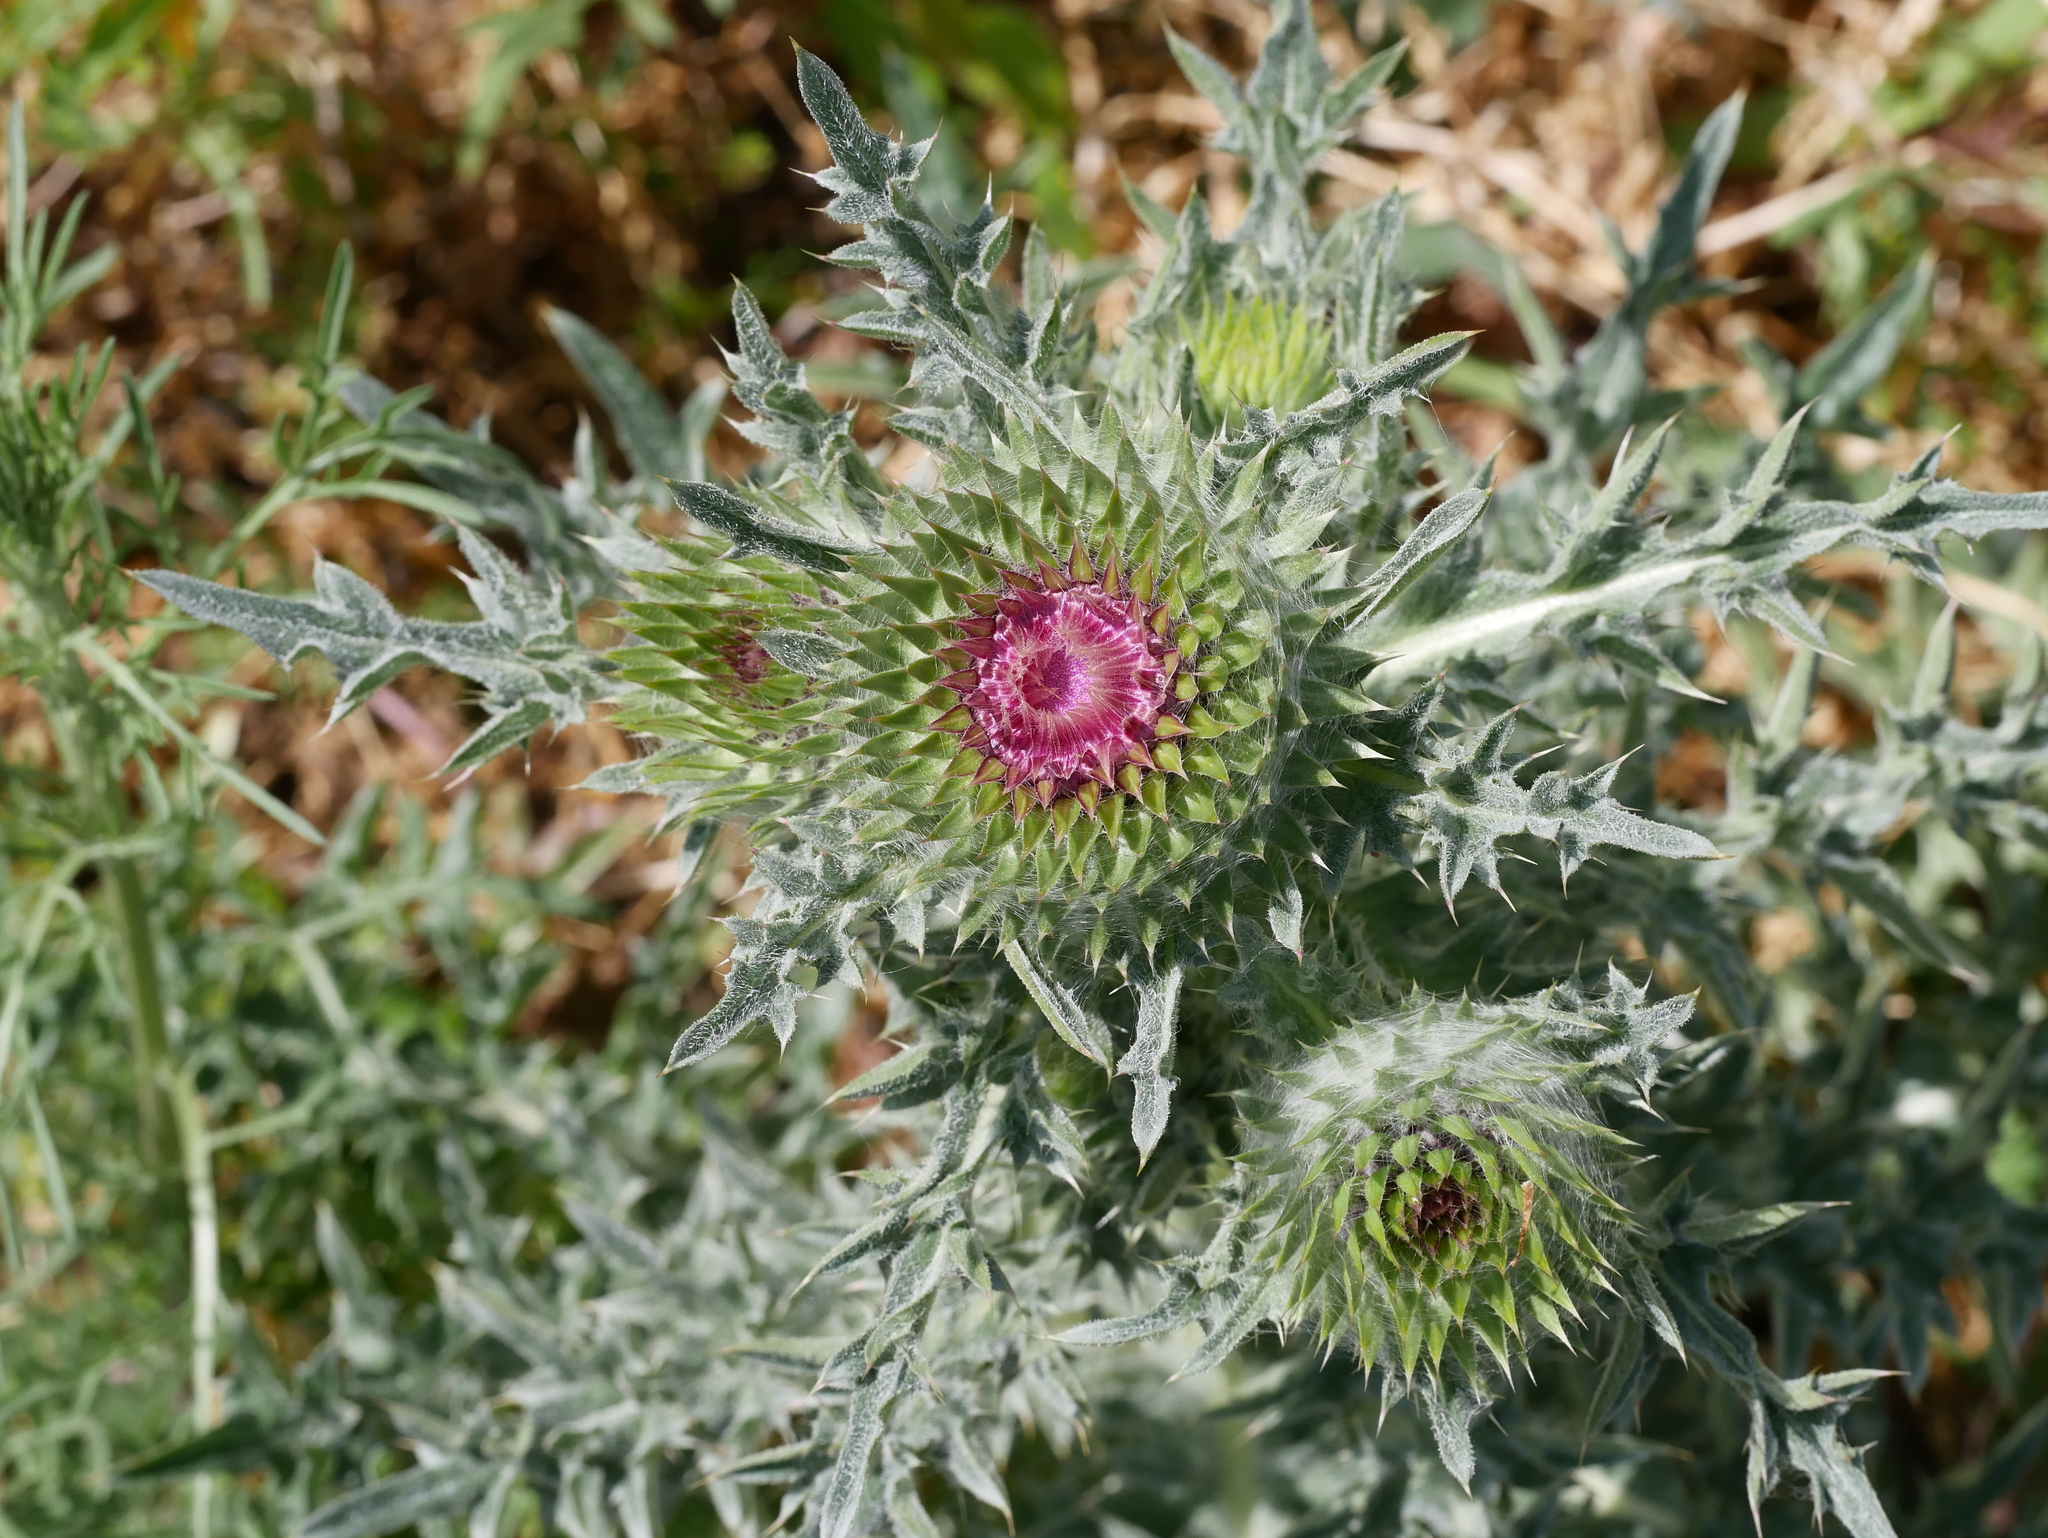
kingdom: Plantae
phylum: Tracheophyta
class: Magnoliopsida
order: Asterales
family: Asteraceae
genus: Carduus
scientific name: Carduus nutans
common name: Musk thistle
